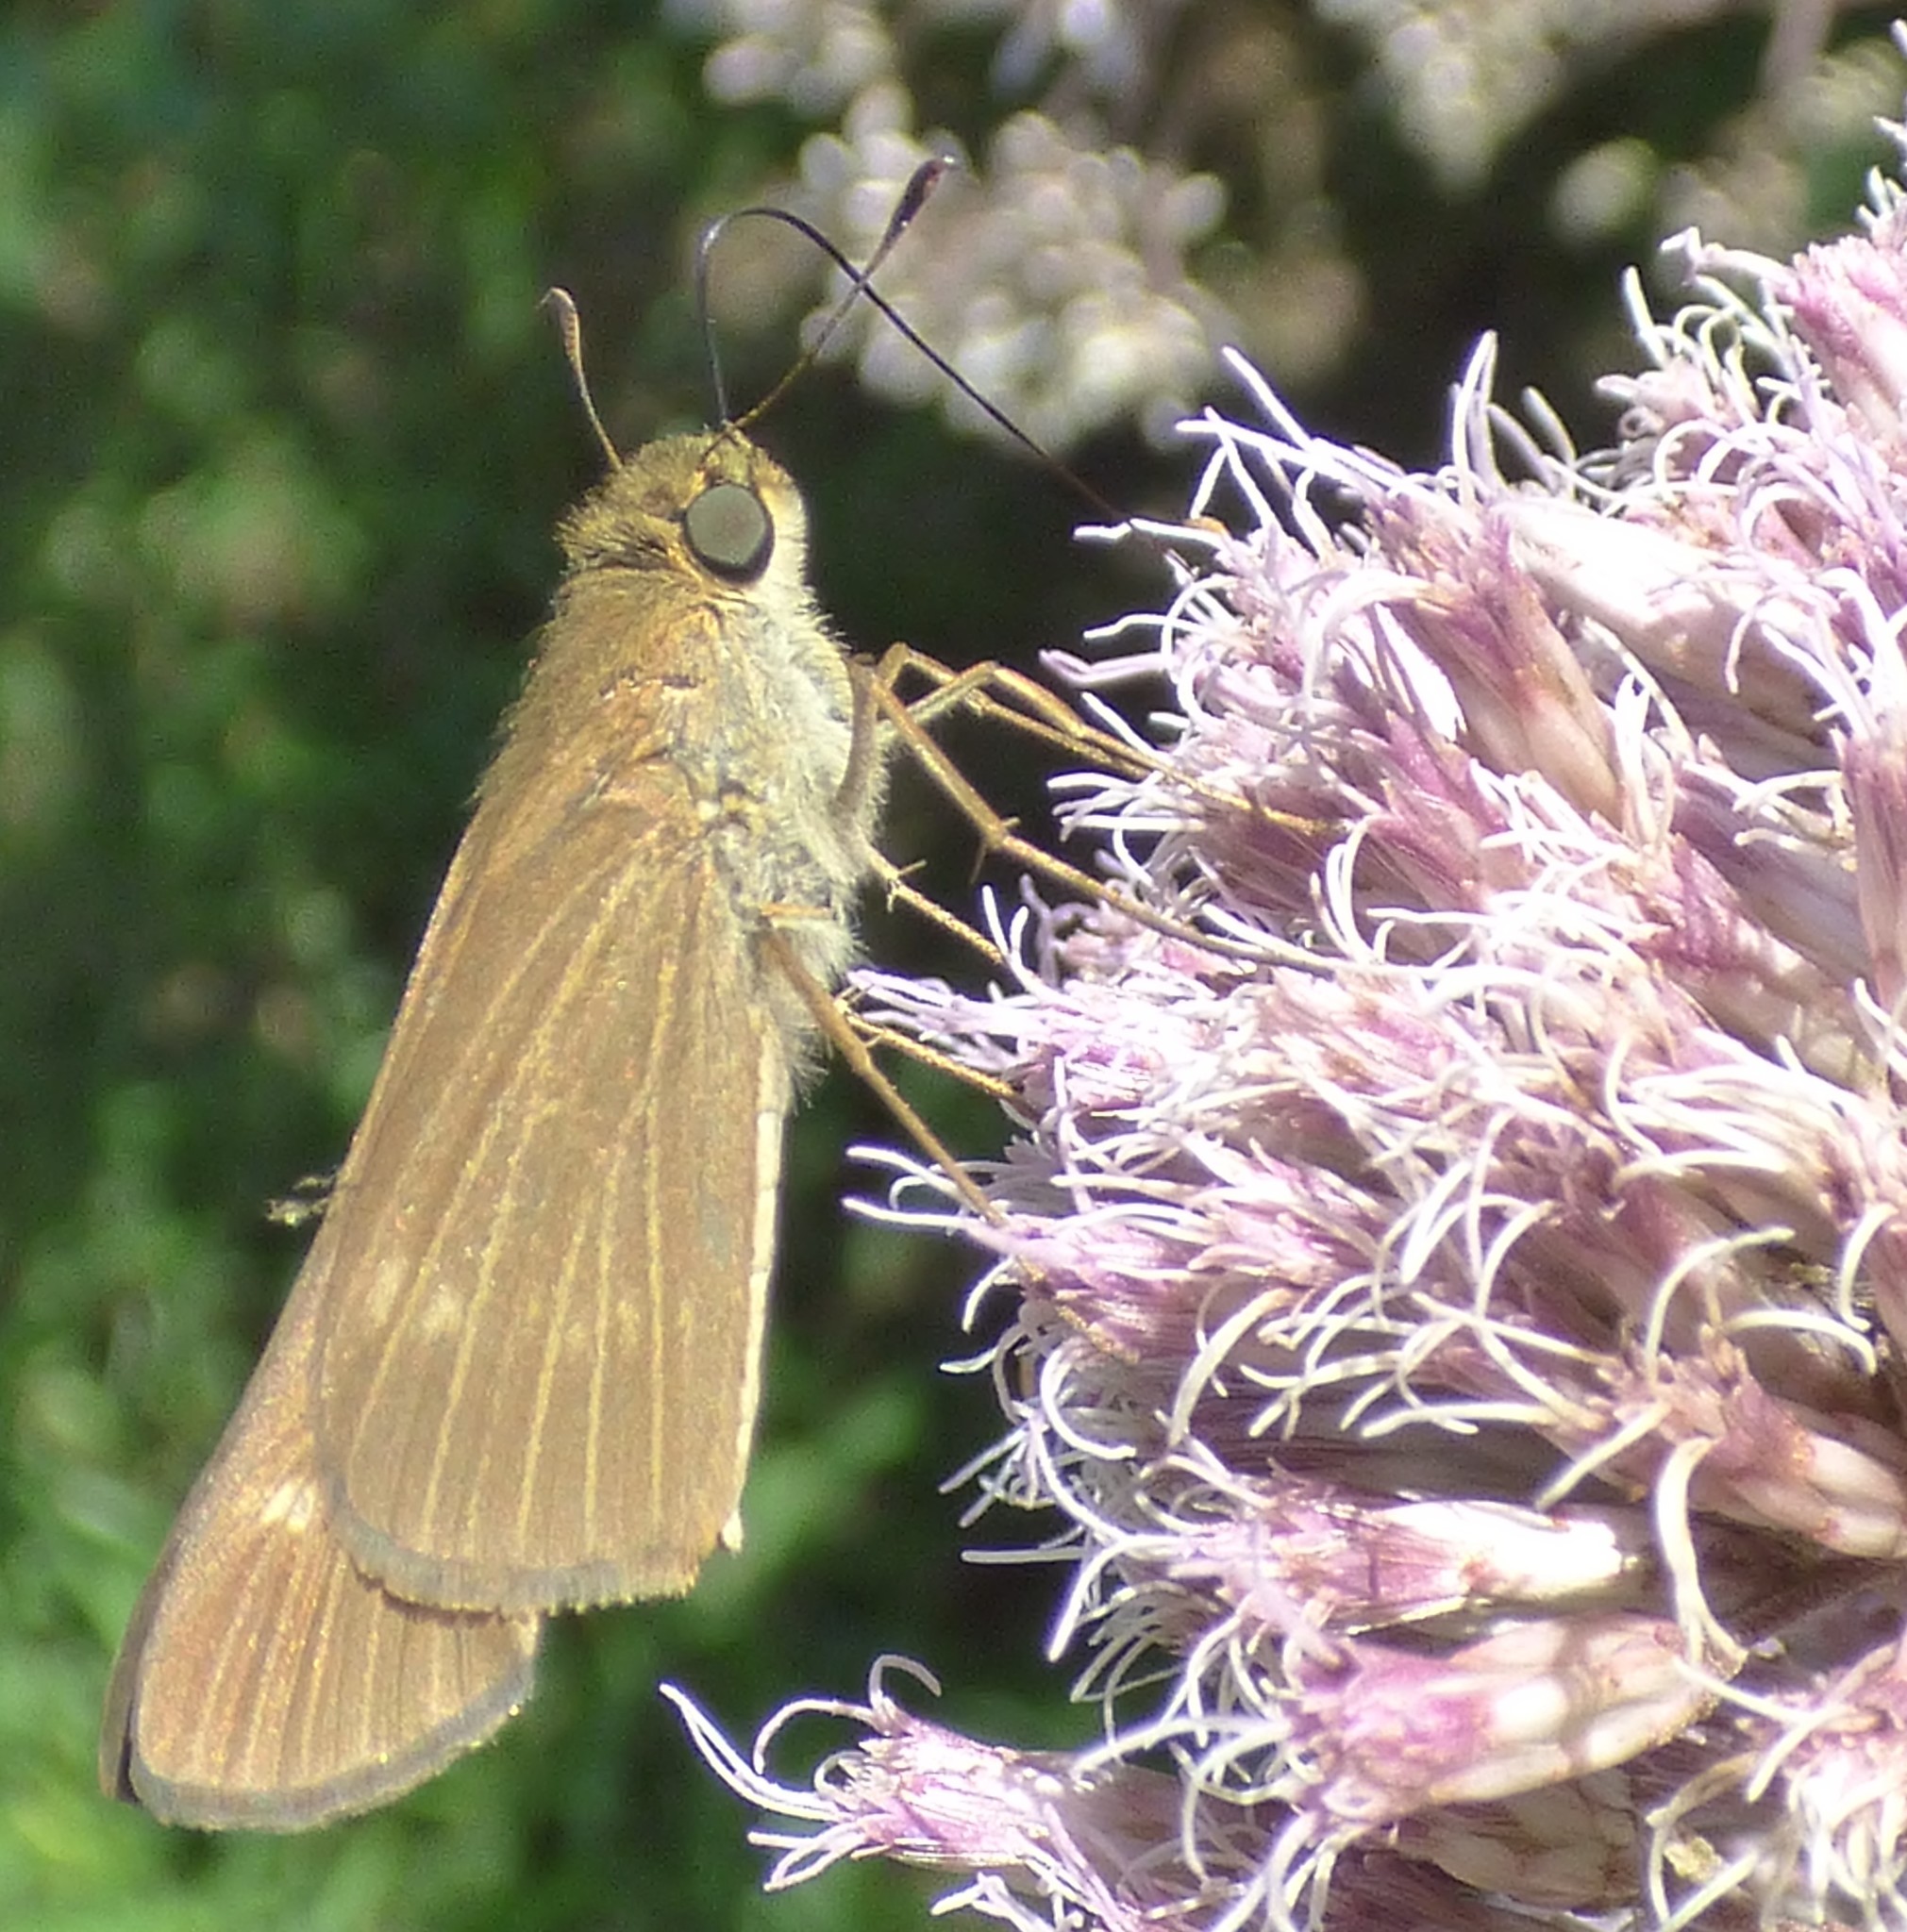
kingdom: Animalia
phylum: Arthropoda
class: Insecta
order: Lepidoptera
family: Hesperiidae
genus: Panoquina
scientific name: Panoquina ocola
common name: Ocola skipper
